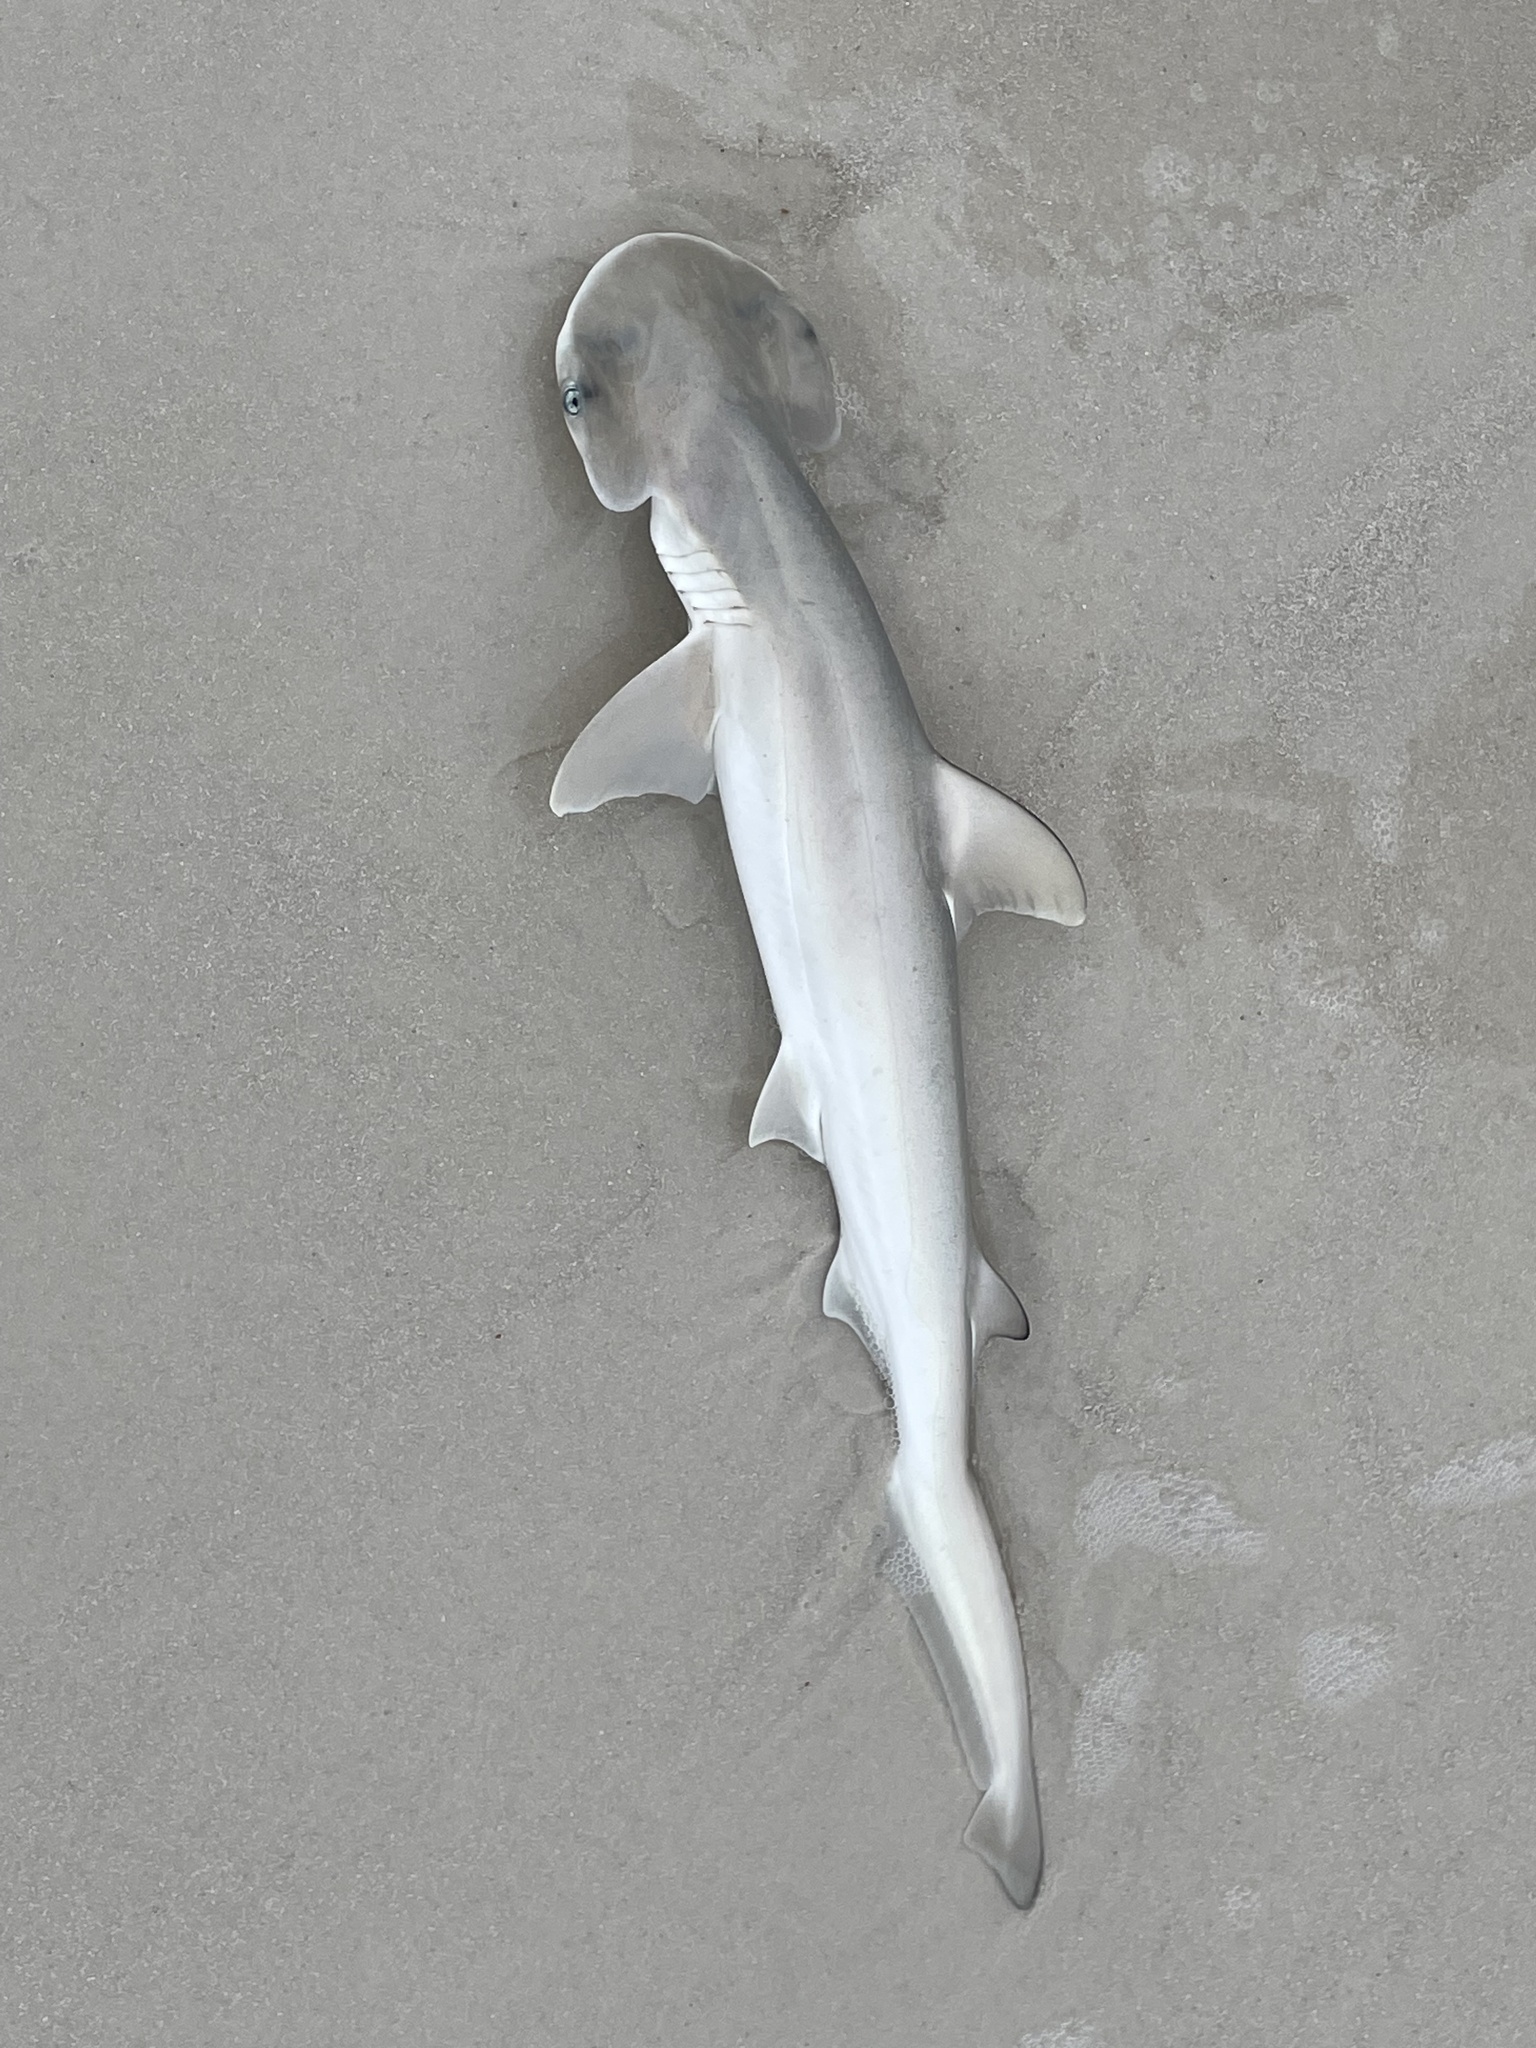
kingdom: Animalia
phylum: Chordata
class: Elasmobranchii
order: Carcharhiniformes
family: Sphyrnidae
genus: Sphyrna
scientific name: Sphyrna tiburo
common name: Bonnethead
